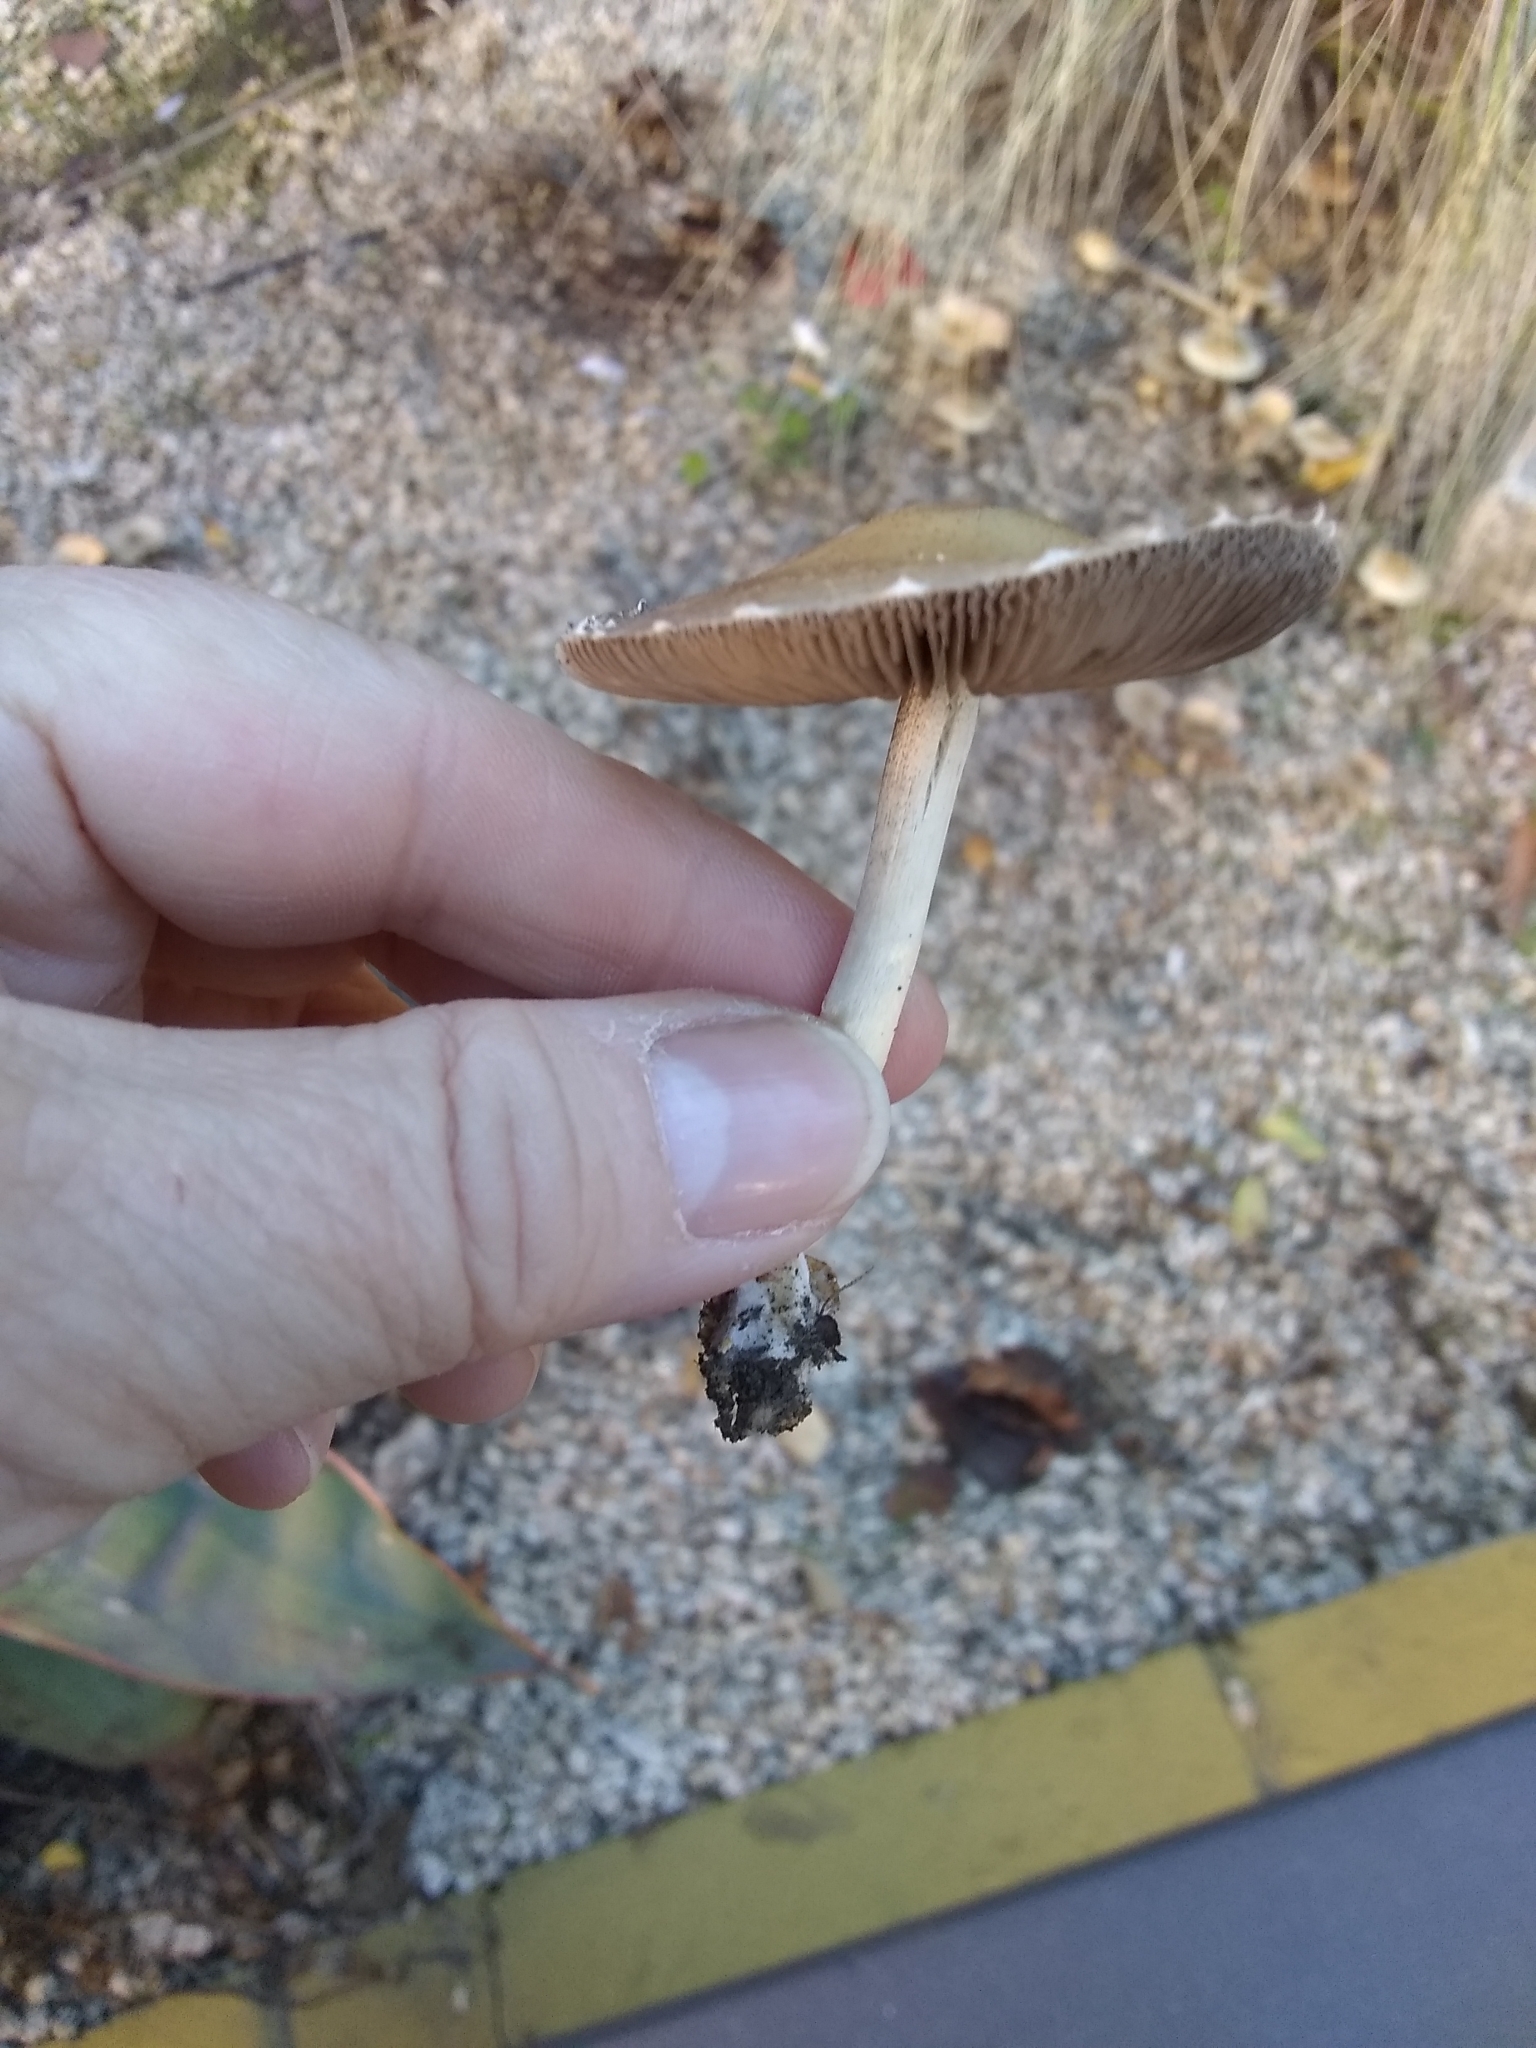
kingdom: Fungi
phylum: Basidiomycota
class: Agaricomycetes
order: Agaricales
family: Psathyrellaceae
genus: Candolleomyces
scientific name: Candolleomyces candolleanus
